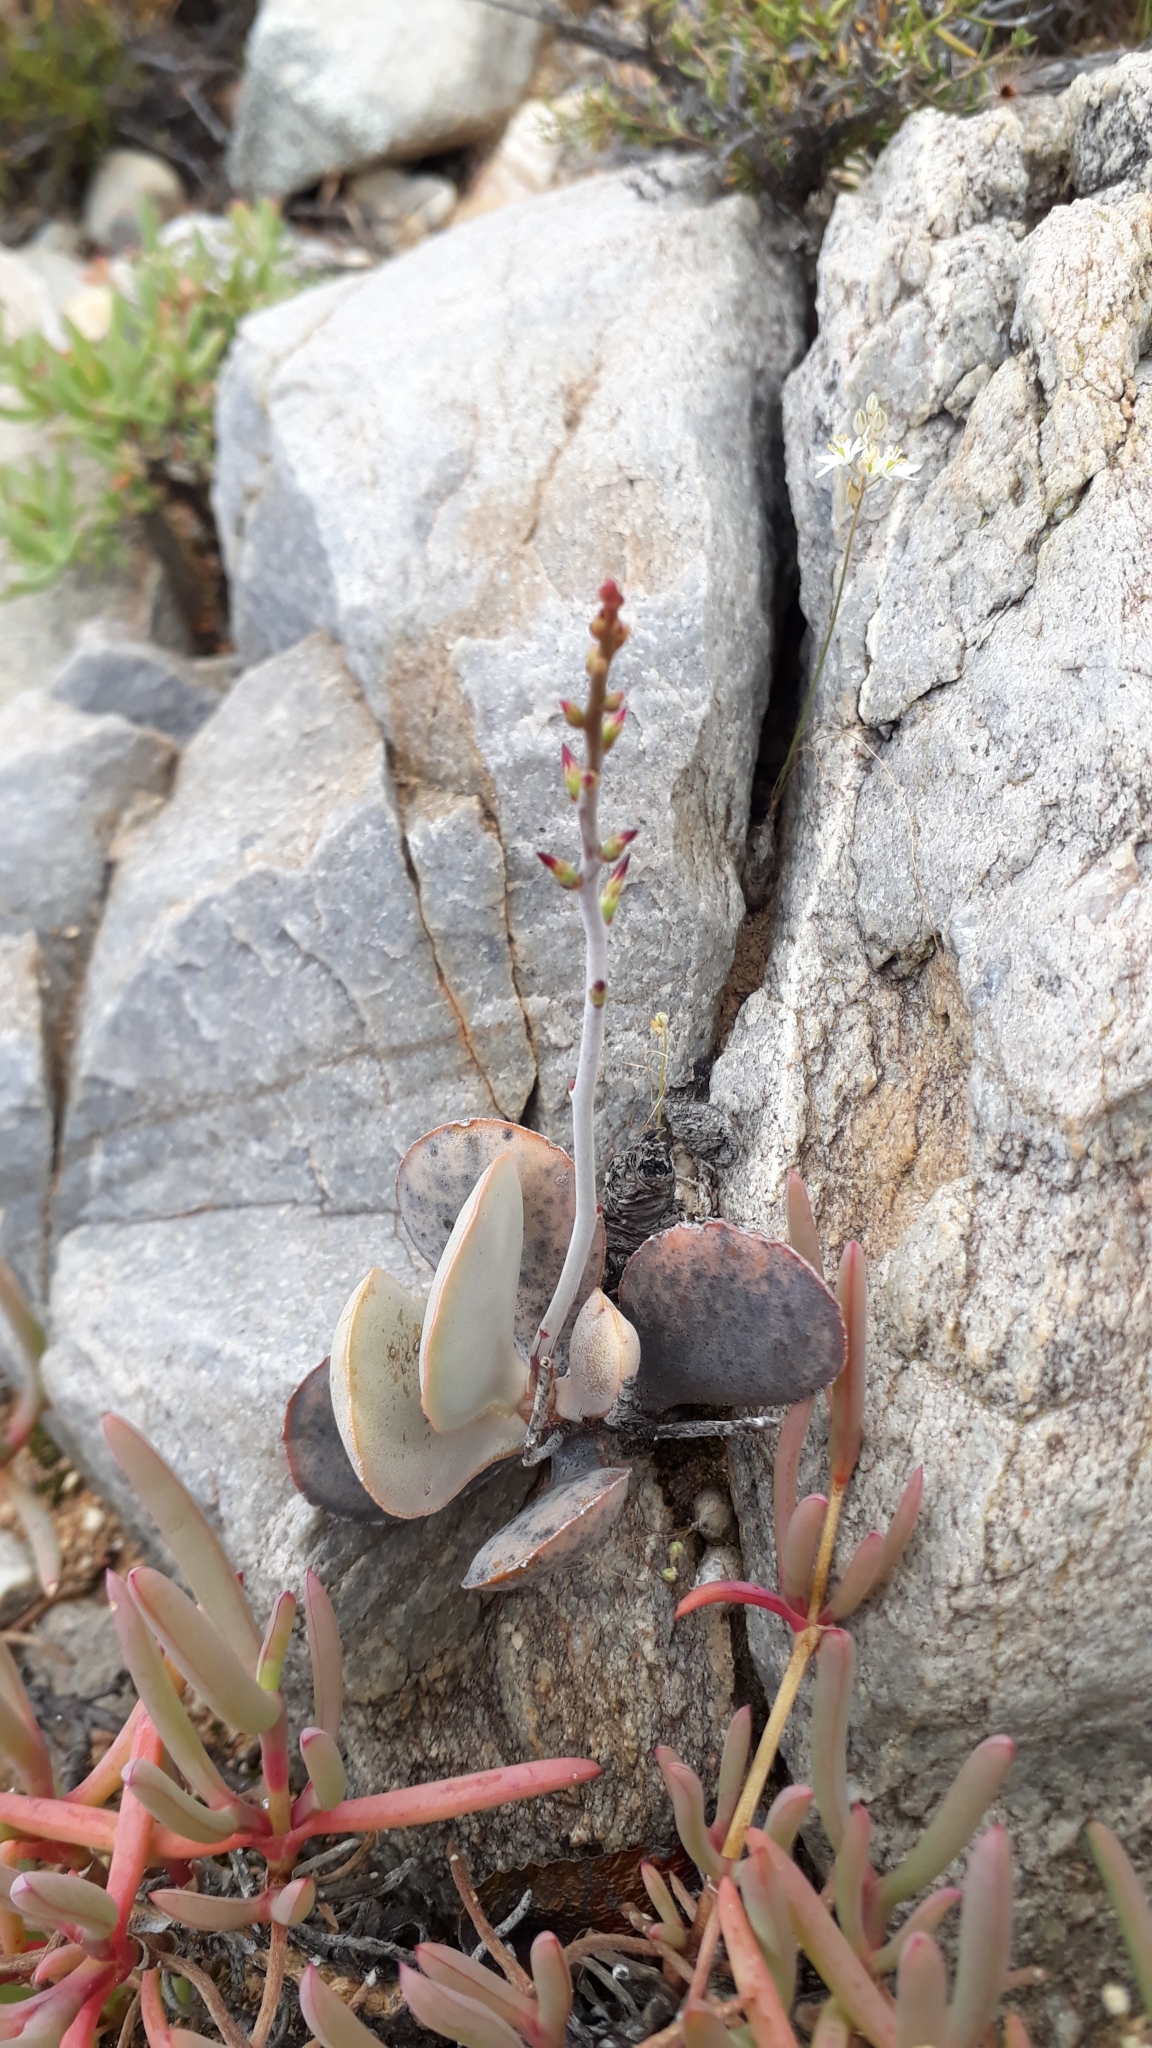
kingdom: Plantae
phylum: Tracheophyta
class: Magnoliopsida
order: Saxifragales
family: Crassulaceae
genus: Adromischus
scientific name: Adromischus maculatus
